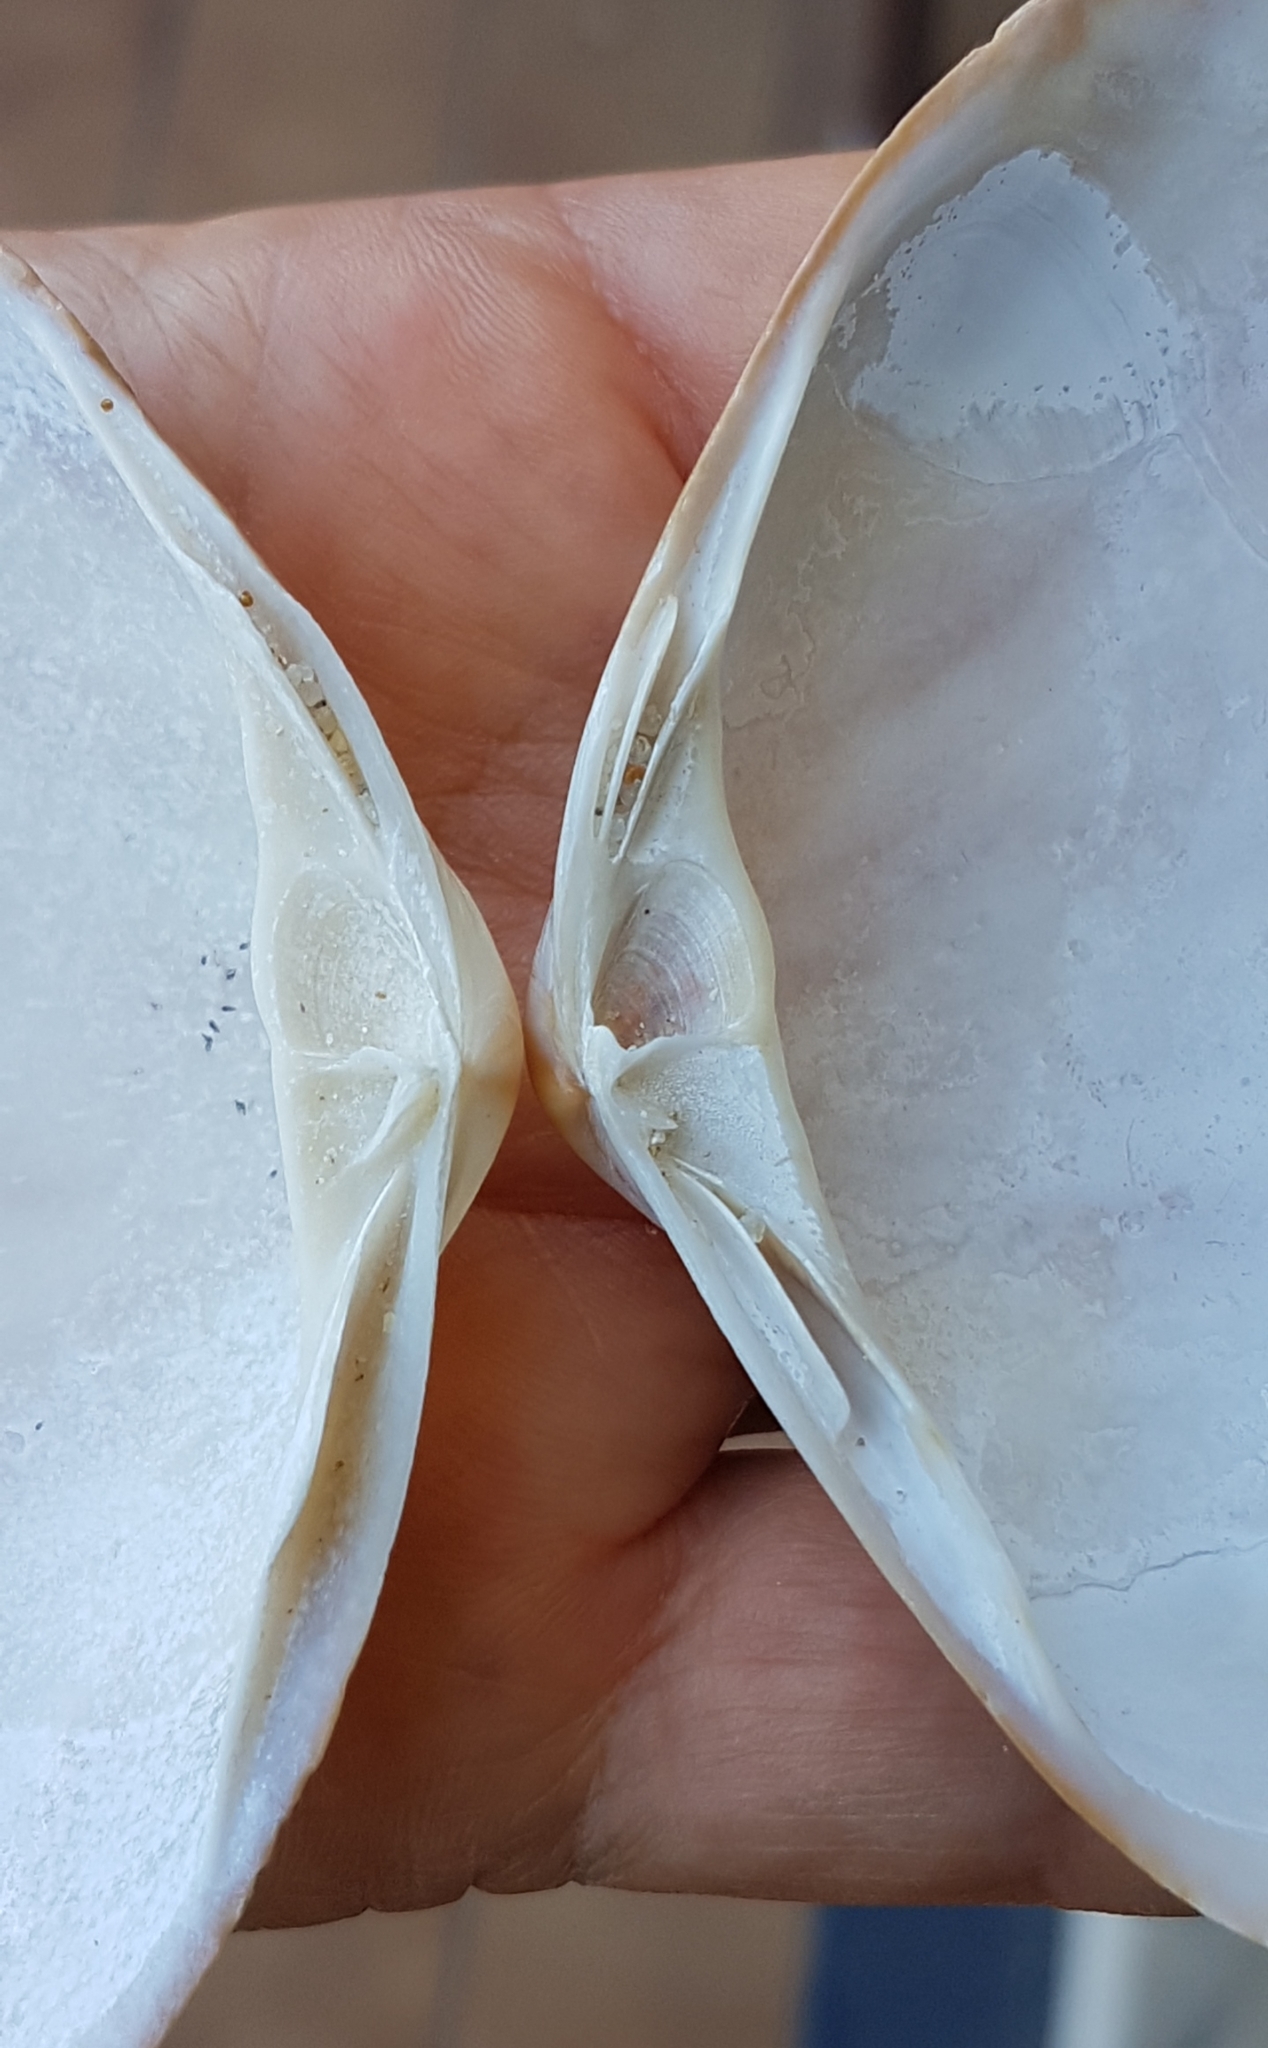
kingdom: Animalia
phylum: Mollusca
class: Bivalvia
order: Venerida
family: Mactridae
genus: Mactra
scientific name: Mactra glauca
